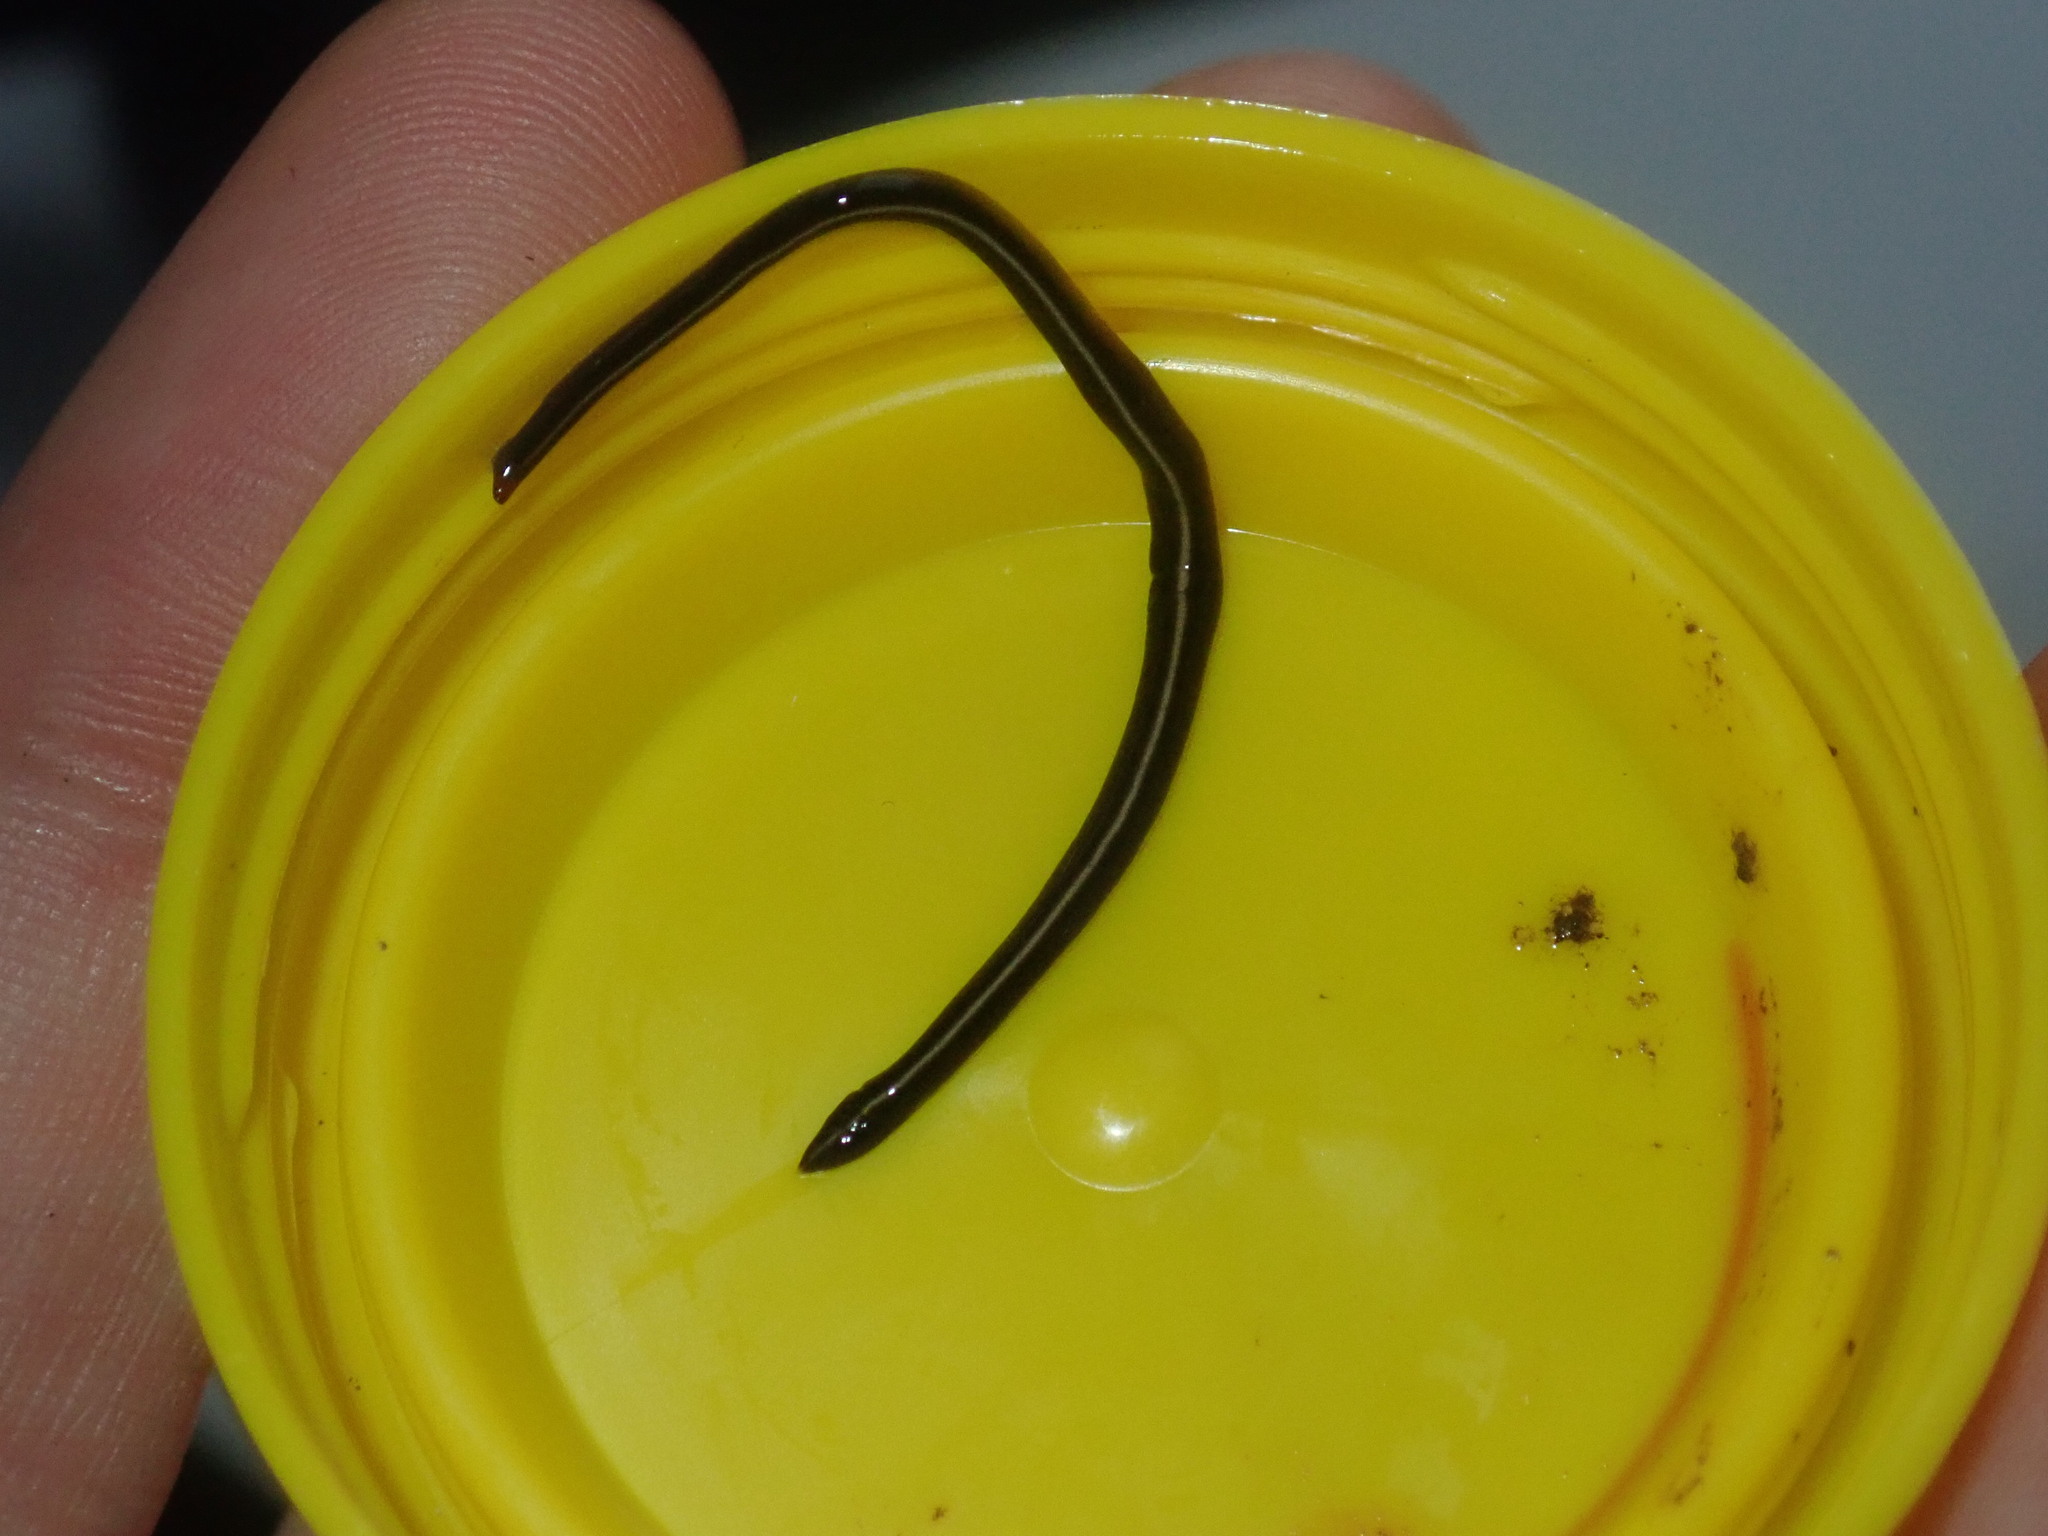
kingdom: Animalia
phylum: Platyhelminthes
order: Tricladida
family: Geoplanidae
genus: Caenoplana
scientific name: Caenoplana coerulea
